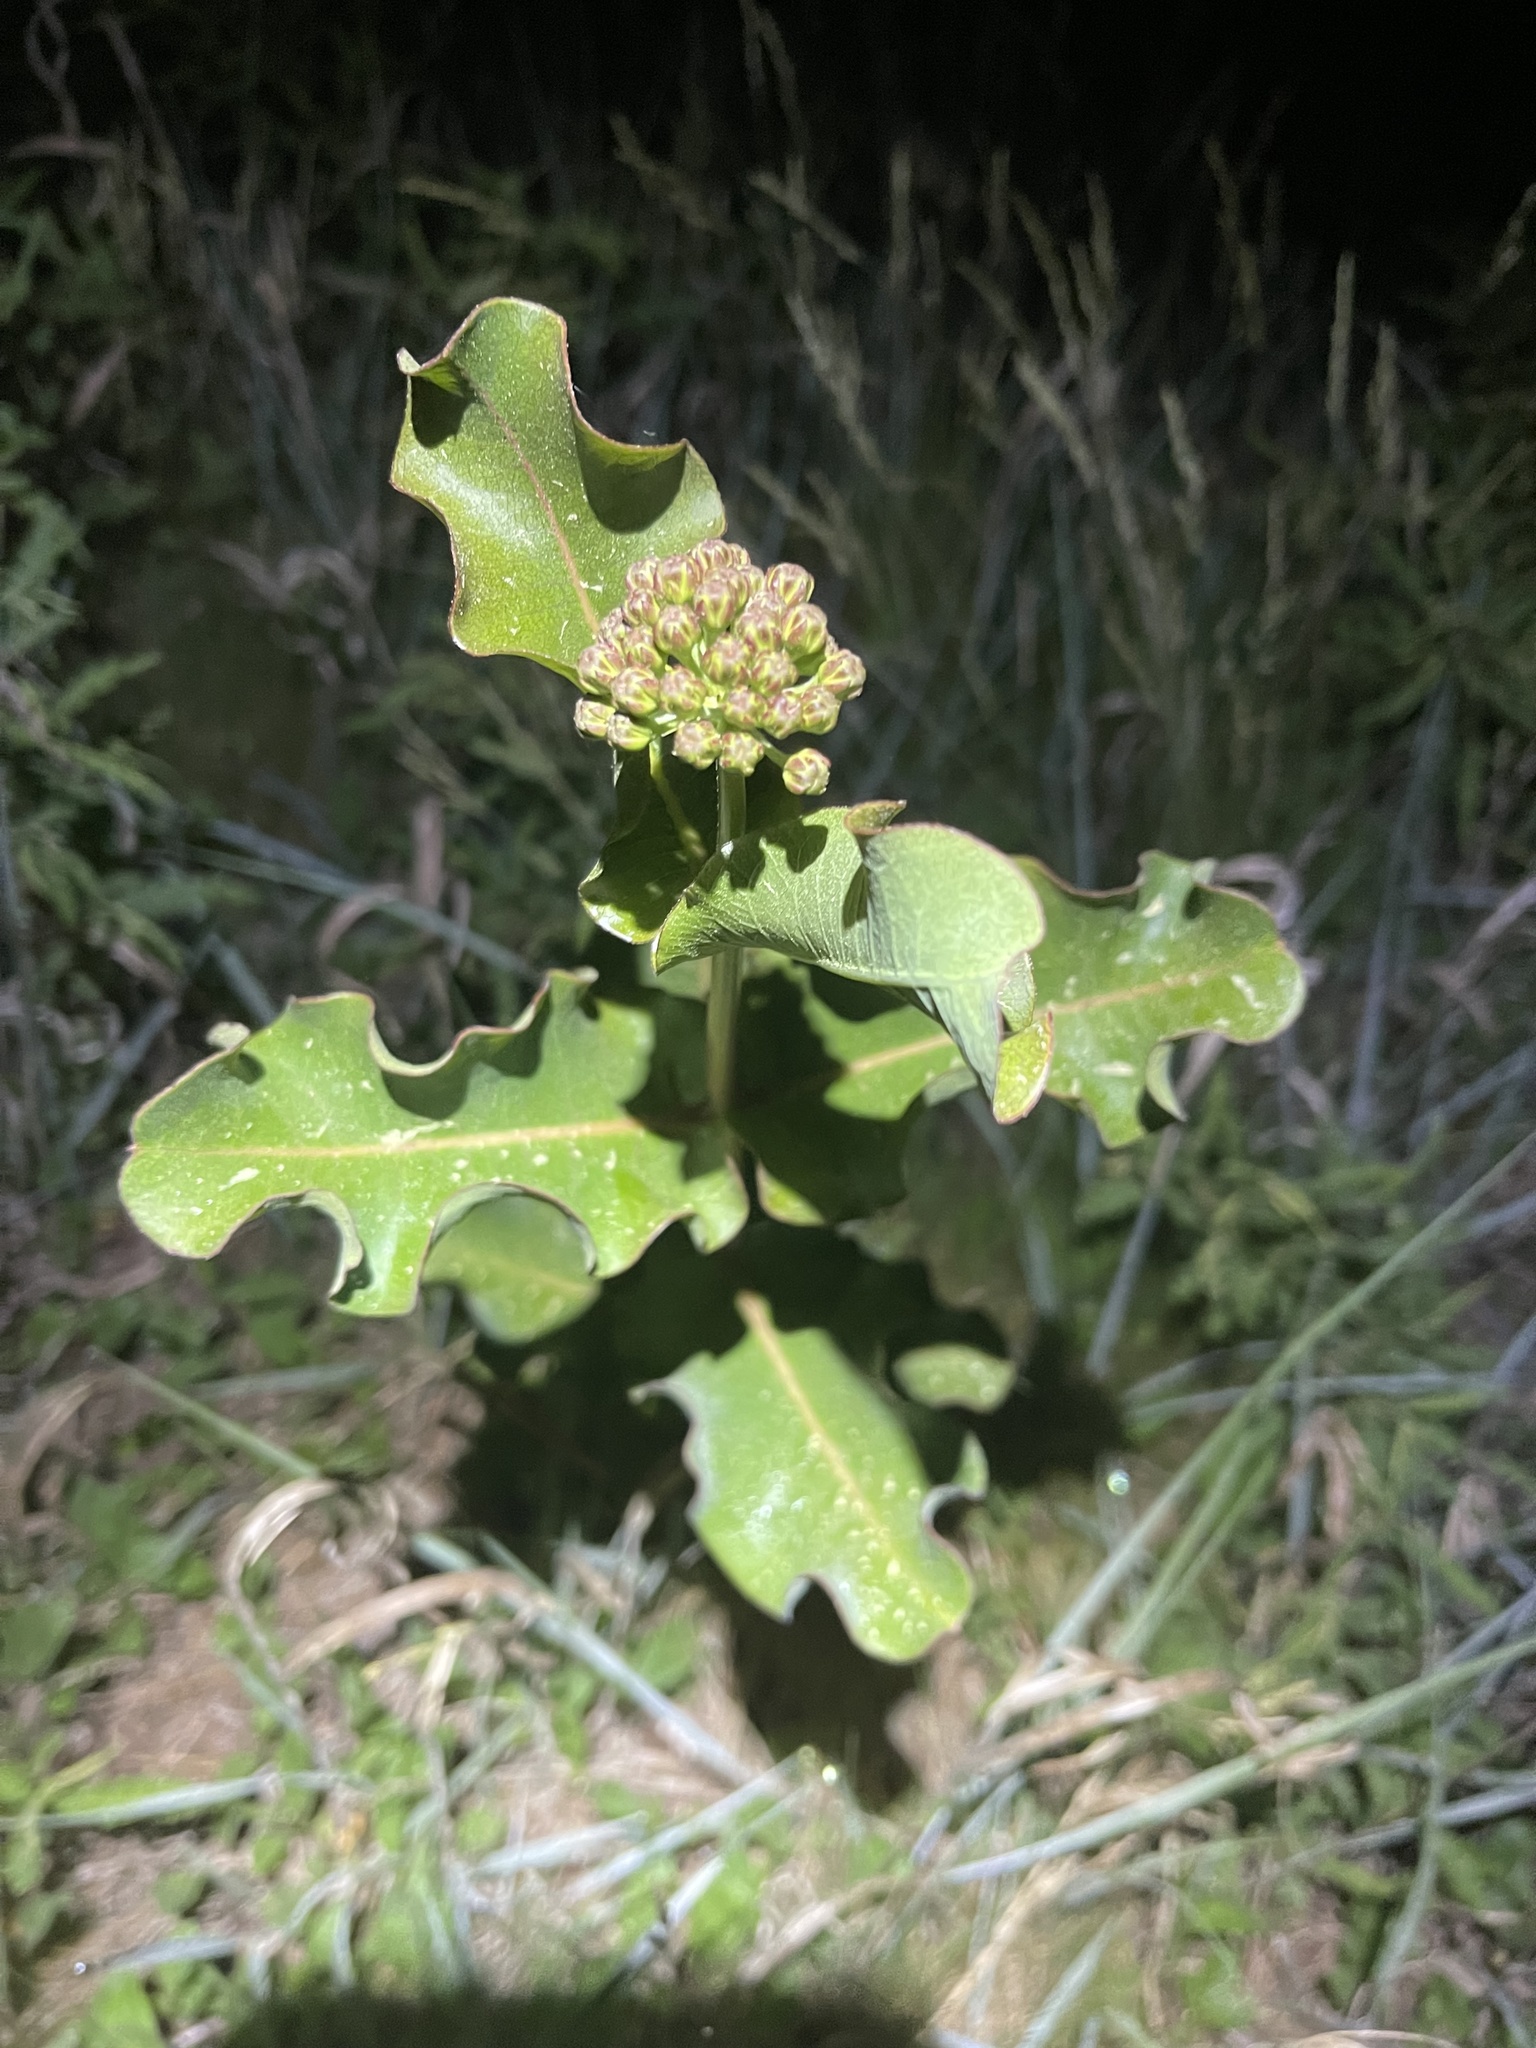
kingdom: Plantae
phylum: Tracheophyta
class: Magnoliopsida
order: Gentianales
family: Apocynaceae
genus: Asclepias
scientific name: Asclepias amplexicaulis
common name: Blunt-leaf milkweed
